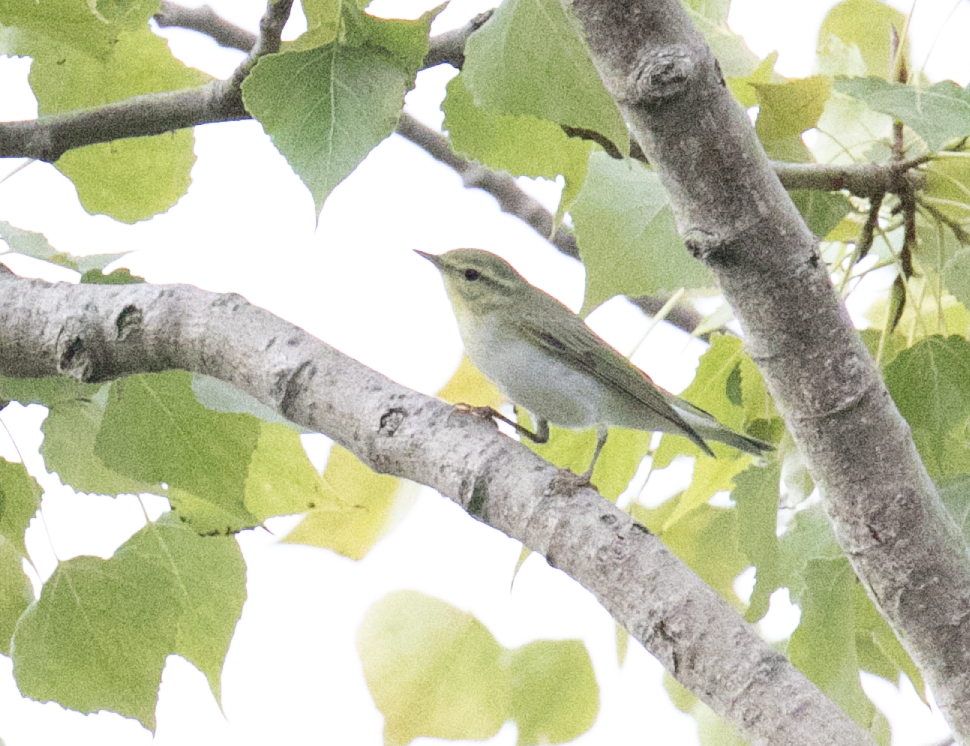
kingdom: Animalia
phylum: Chordata
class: Aves
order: Passeriformes
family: Phylloscopidae
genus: Phylloscopus
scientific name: Phylloscopus sibillatrix
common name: Wood warbler
